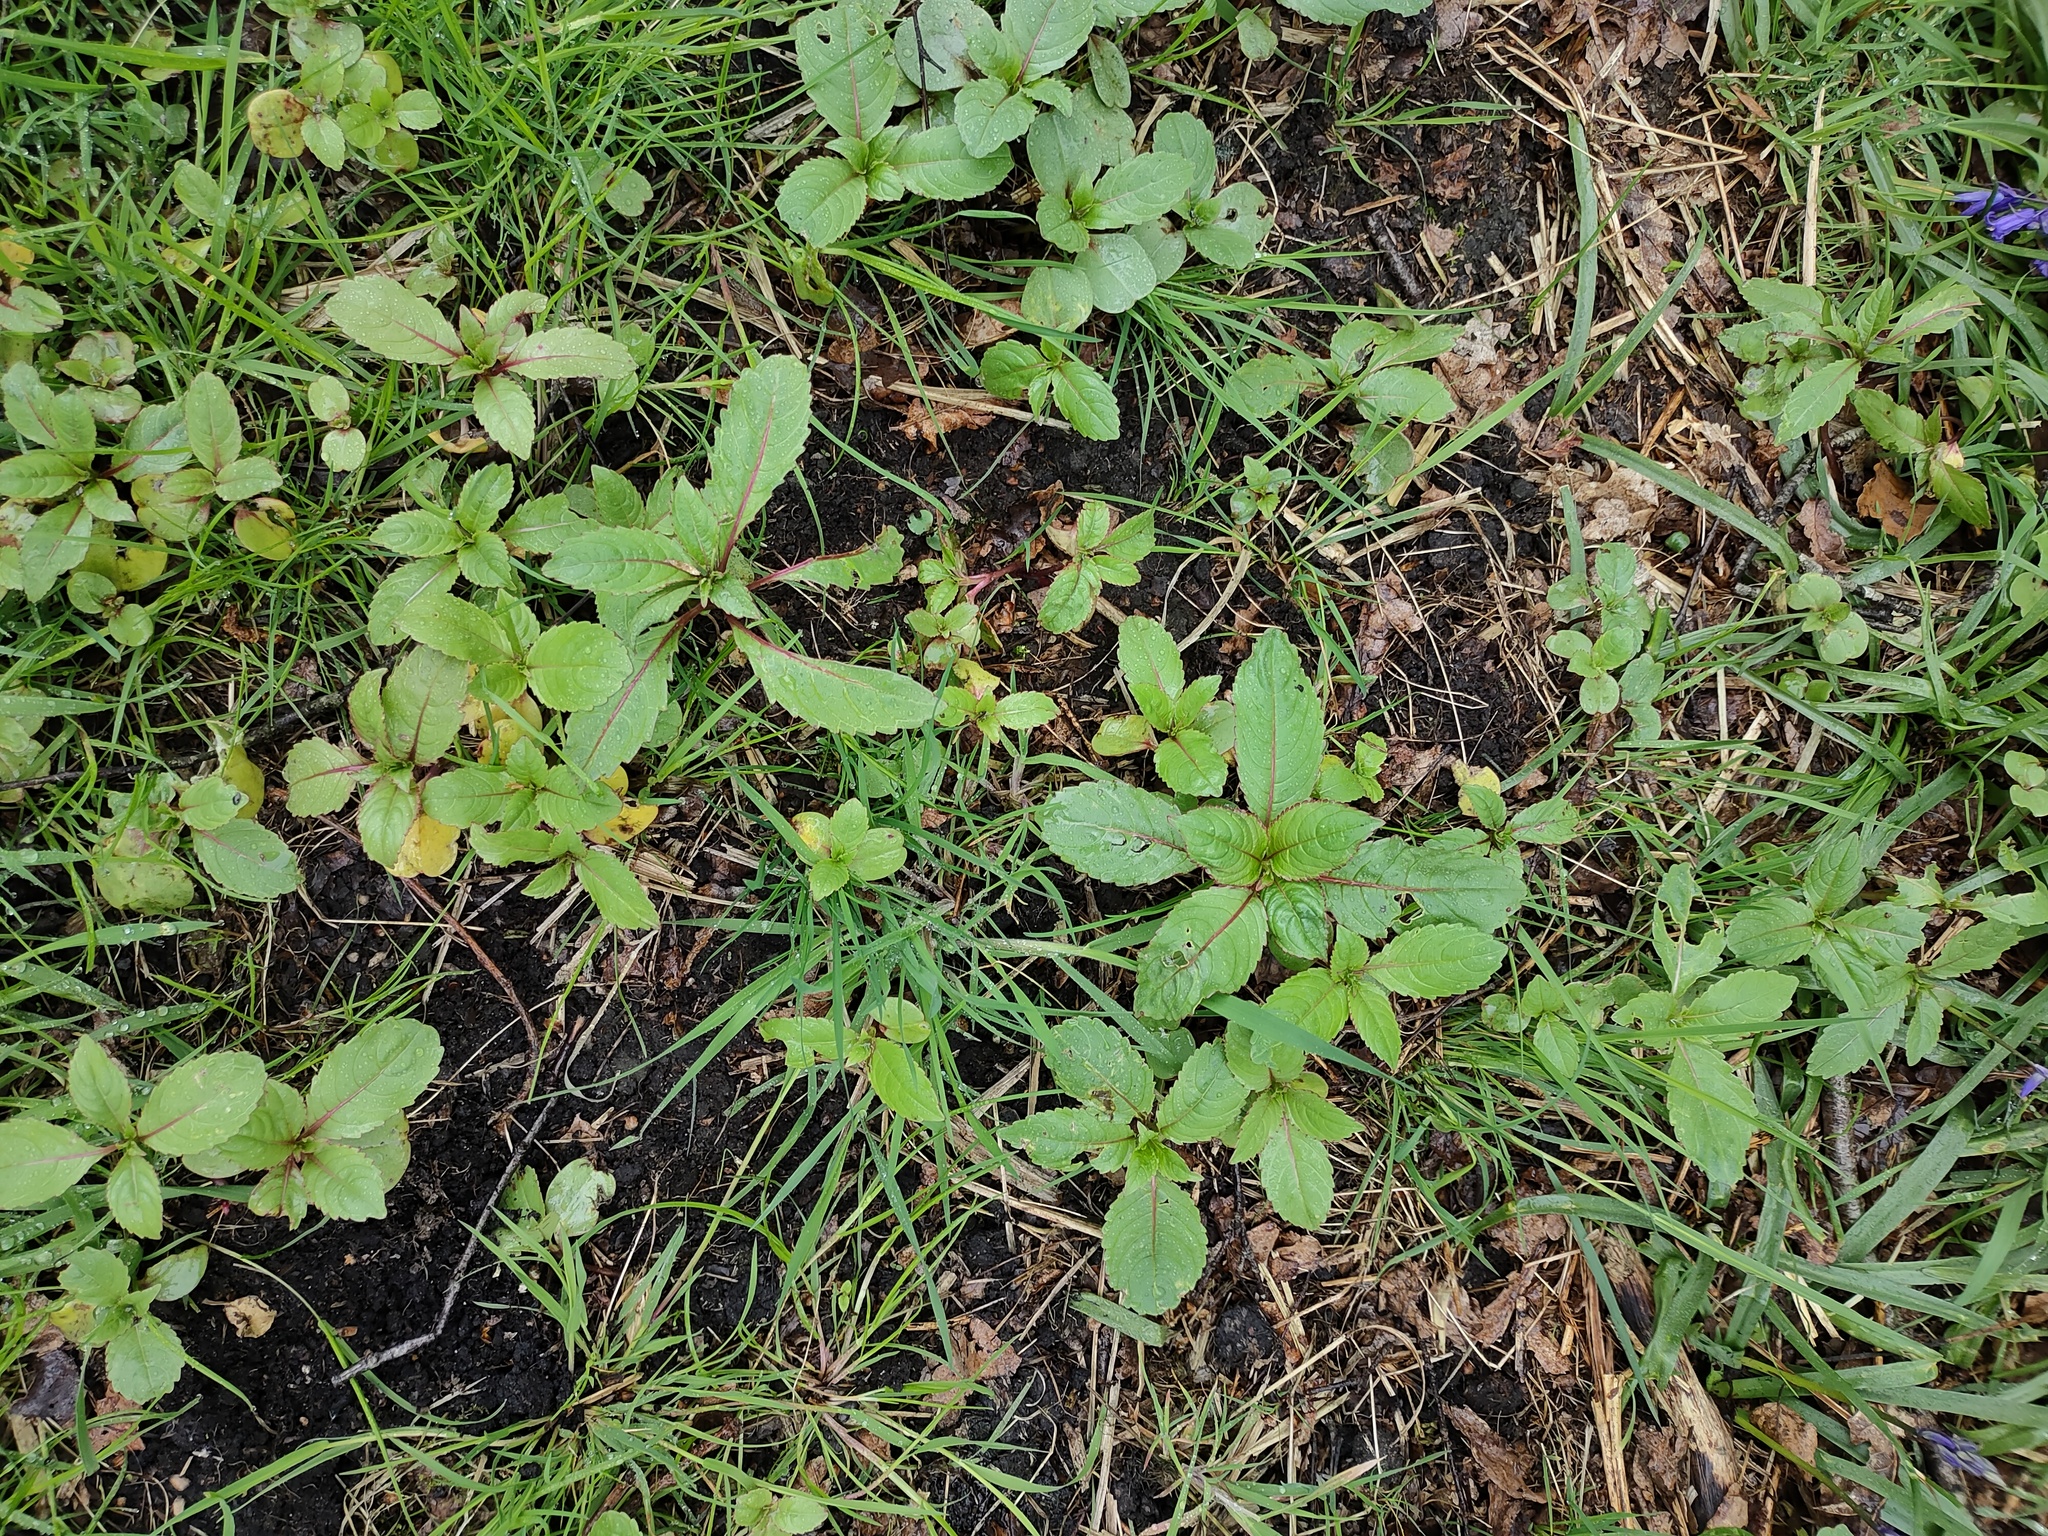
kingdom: Plantae
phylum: Tracheophyta
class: Magnoliopsida
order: Ericales
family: Balsaminaceae
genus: Impatiens
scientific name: Impatiens glandulifera
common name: Himalayan balsam
